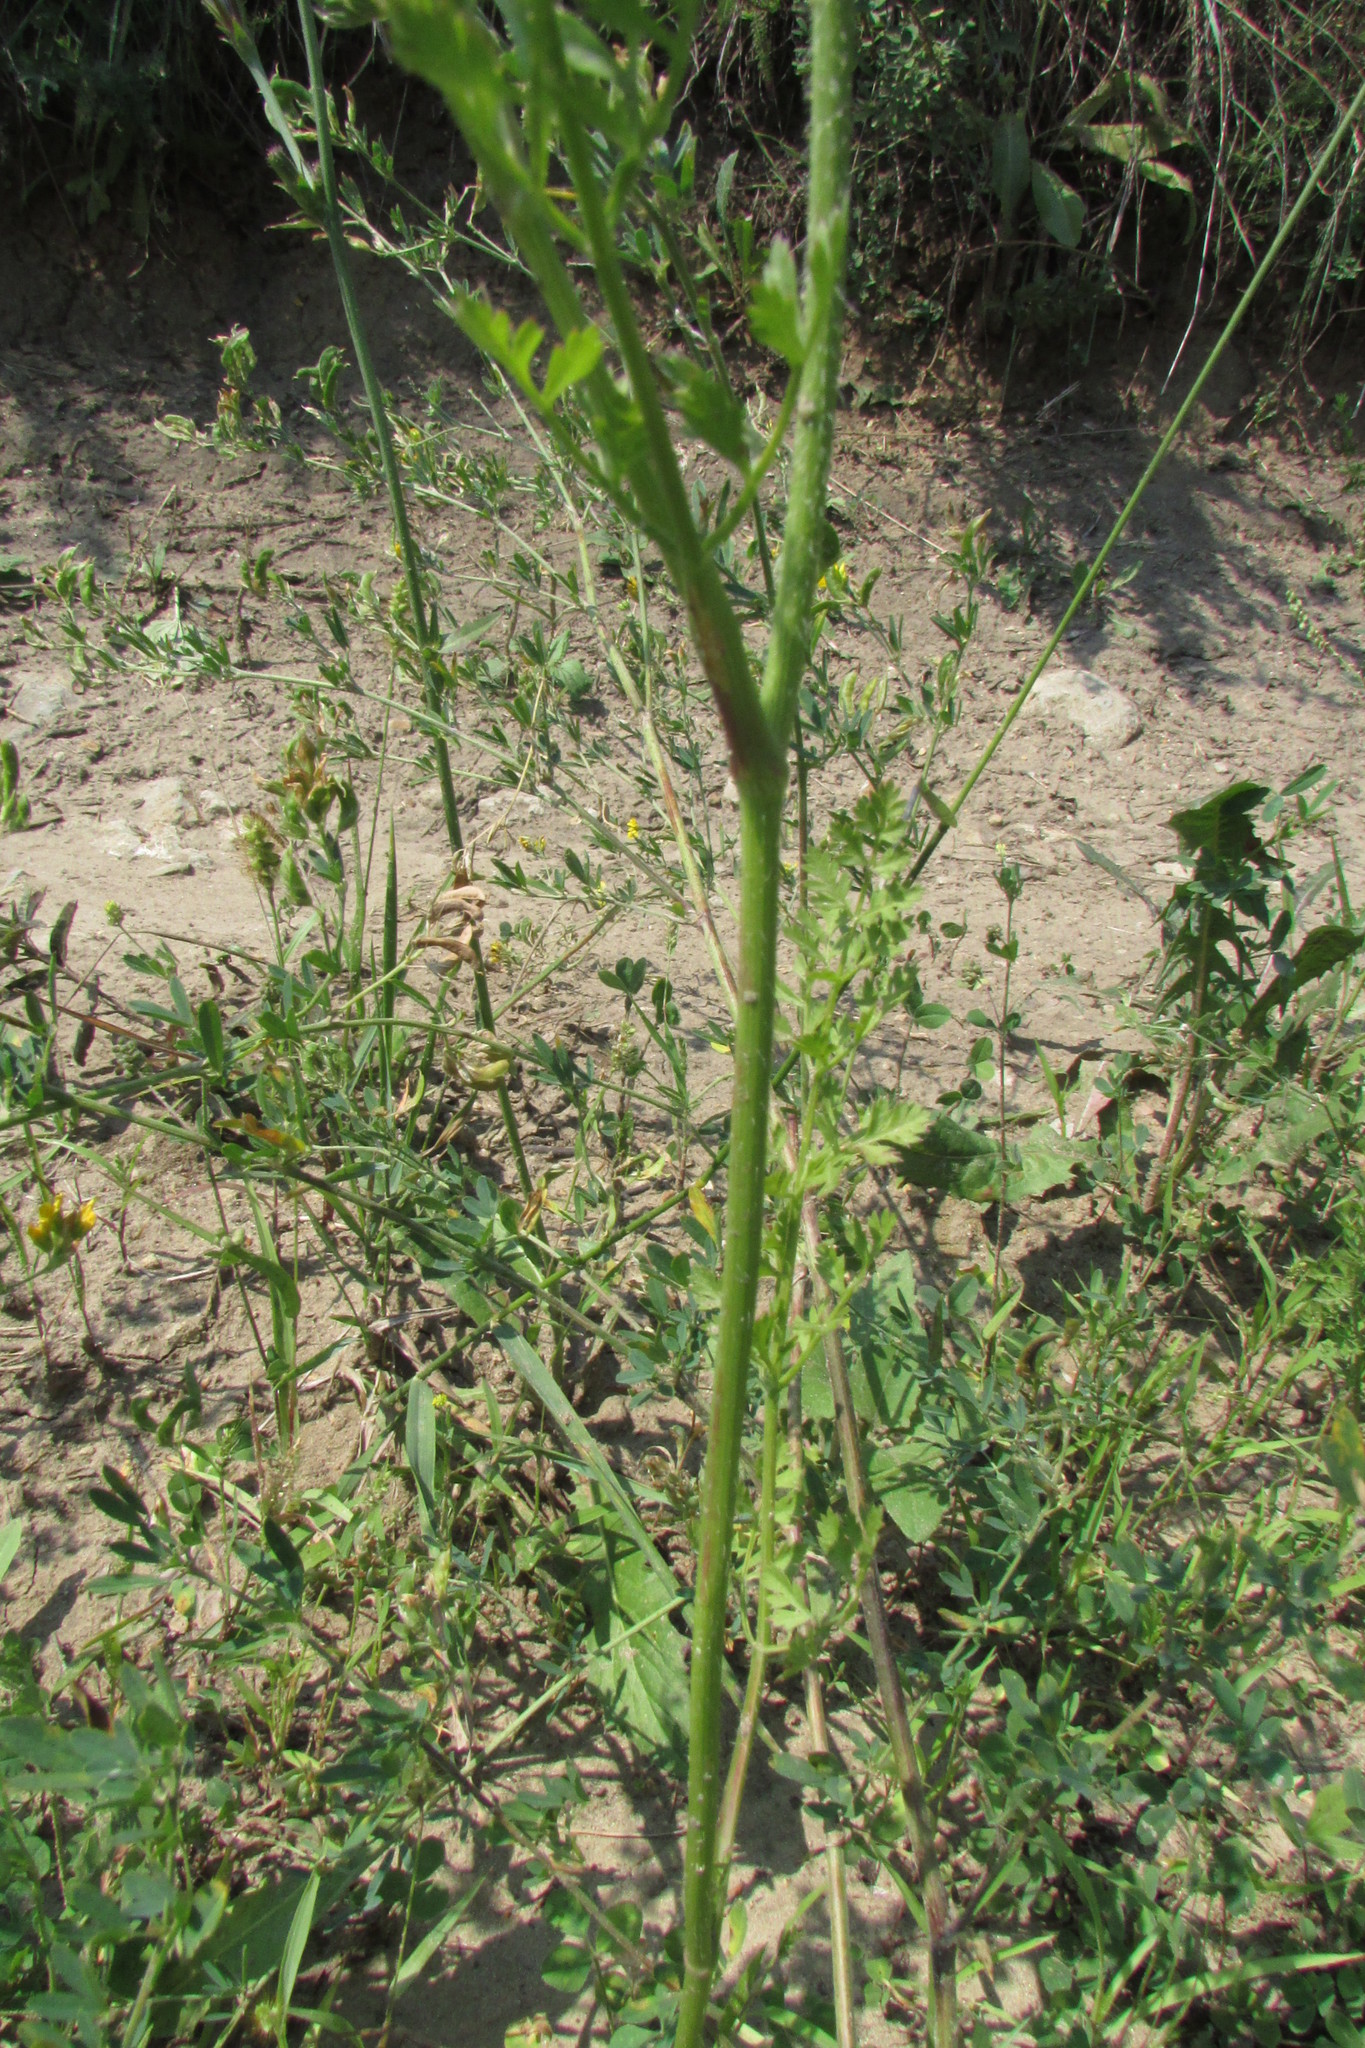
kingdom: Plantae
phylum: Tracheophyta
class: Magnoliopsida
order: Apiales
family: Apiaceae
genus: Daucus
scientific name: Daucus carota
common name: Wild carrot
